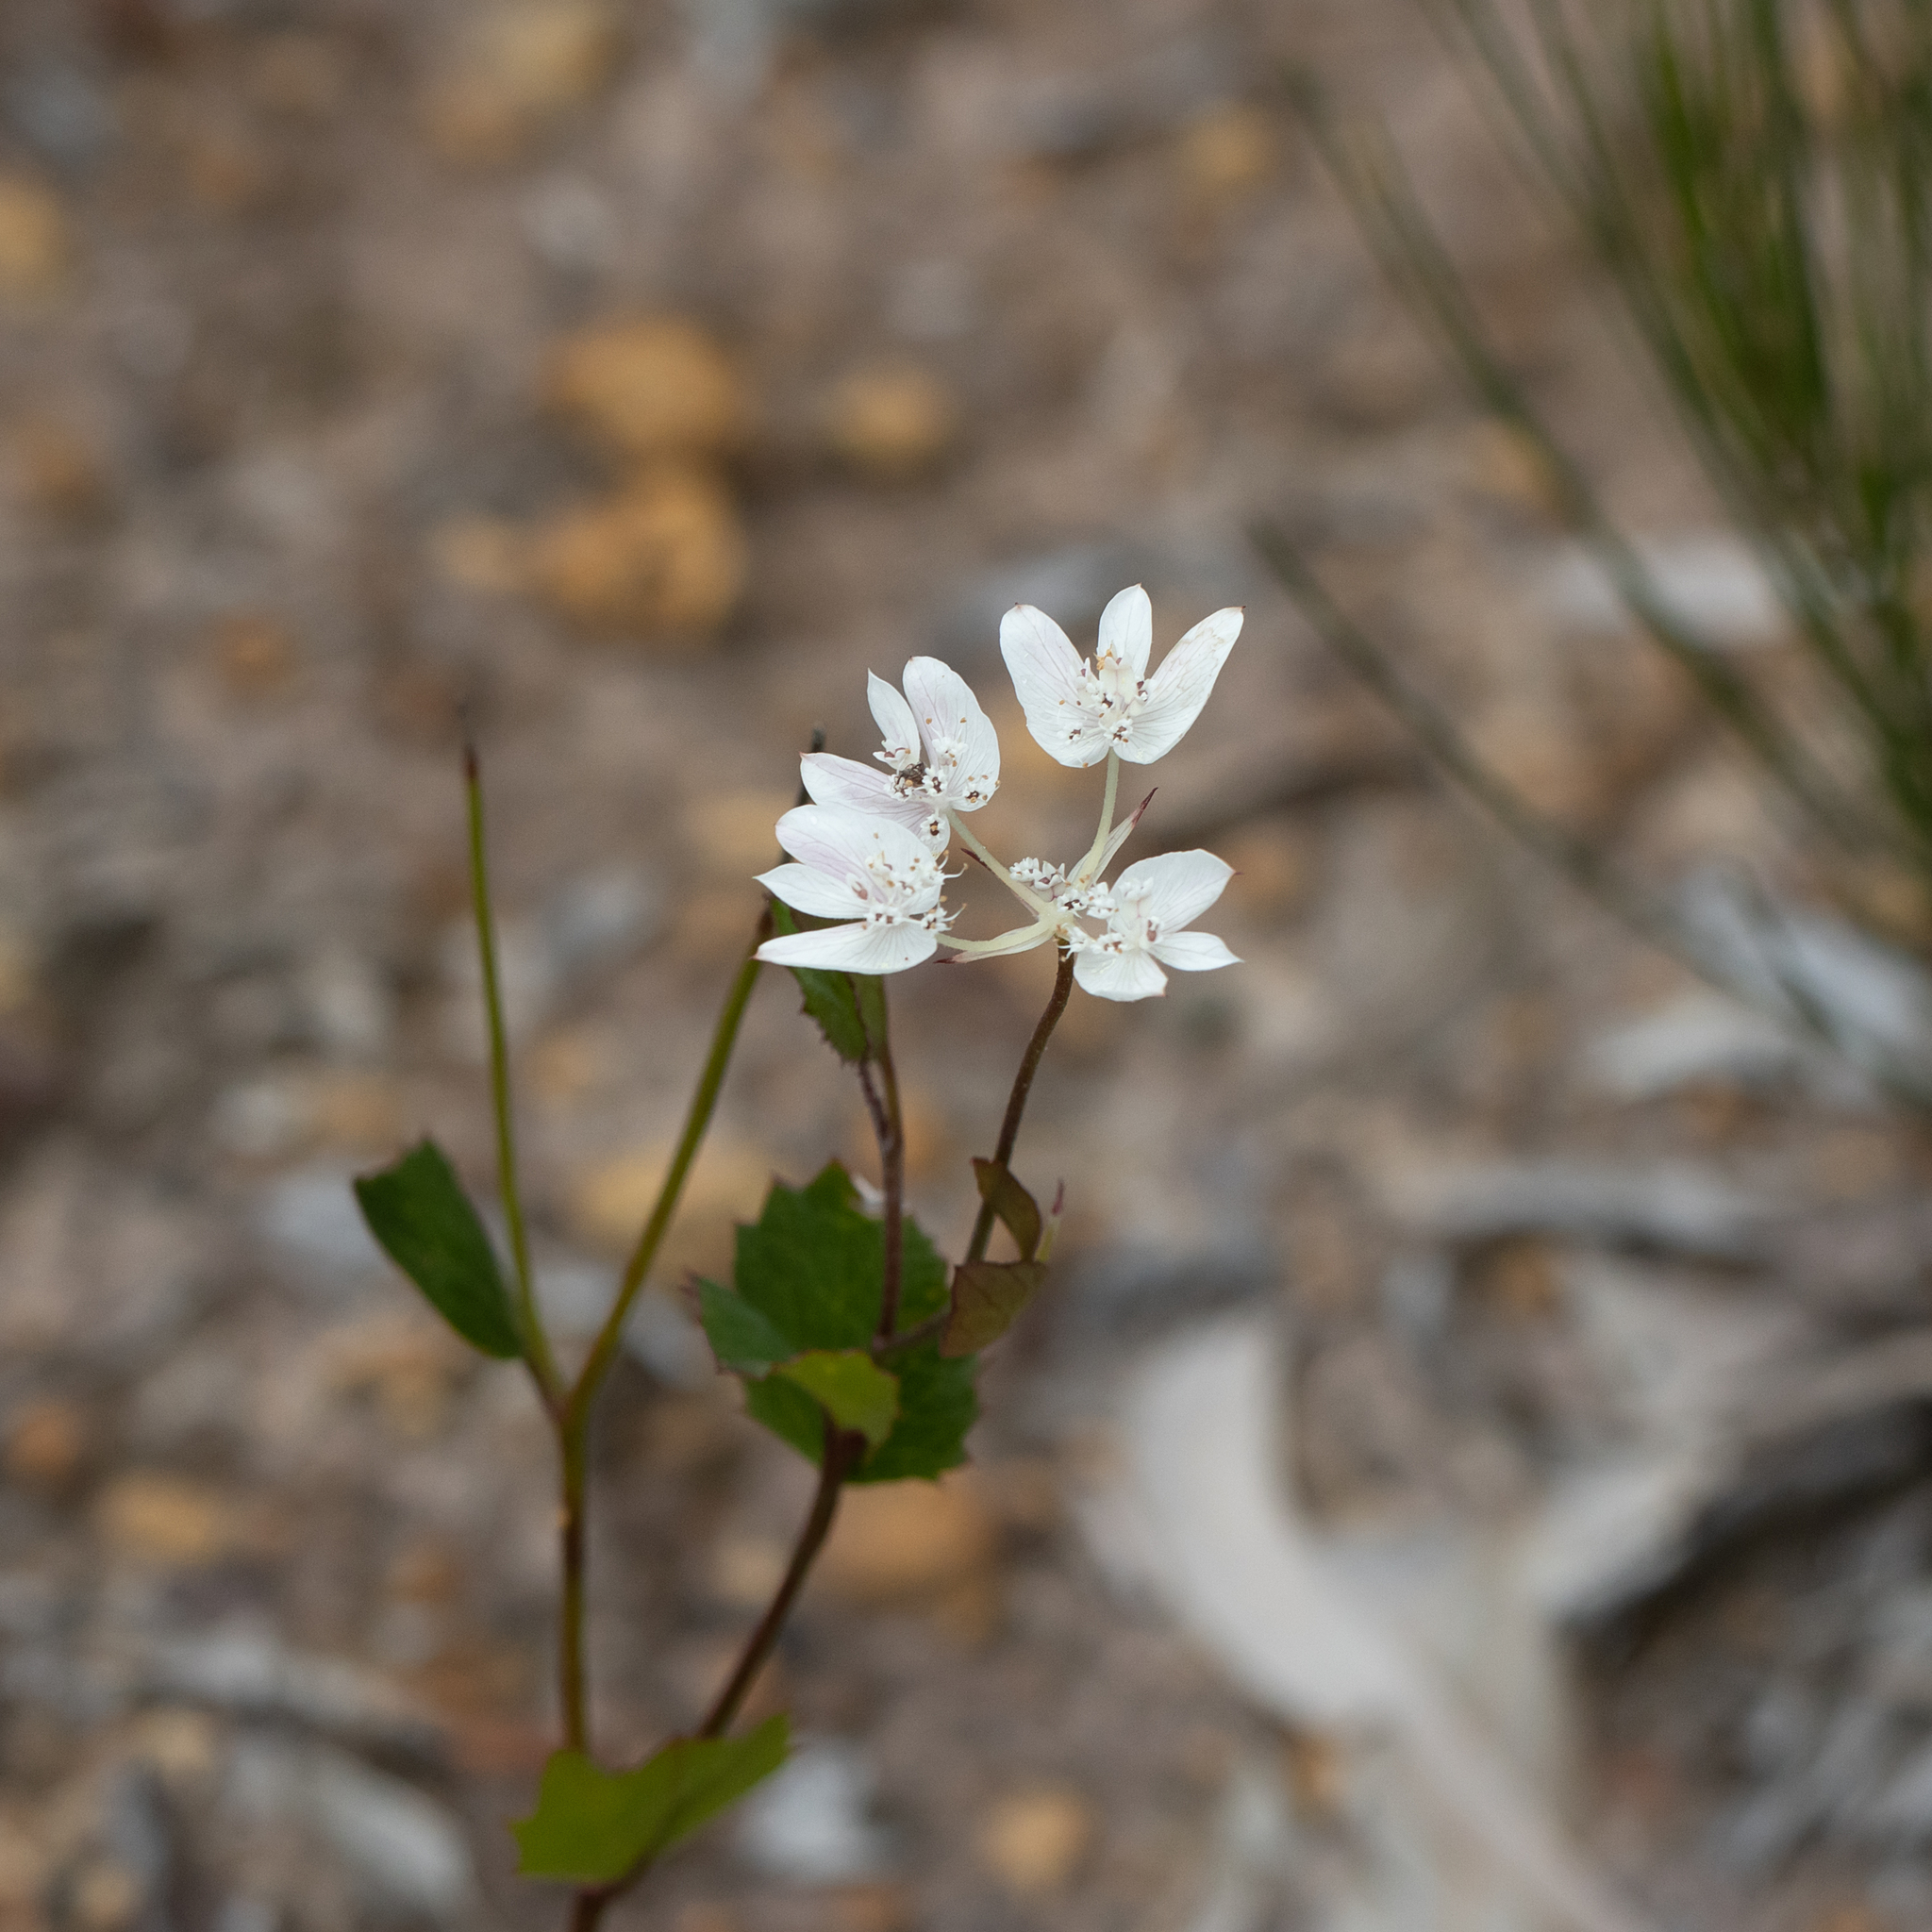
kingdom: Plantae
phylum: Tracheophyta
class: Magnoliopsida
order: Apiales
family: Apiaceae
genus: Xanthosia
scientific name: Xanthosia rotundifolia
